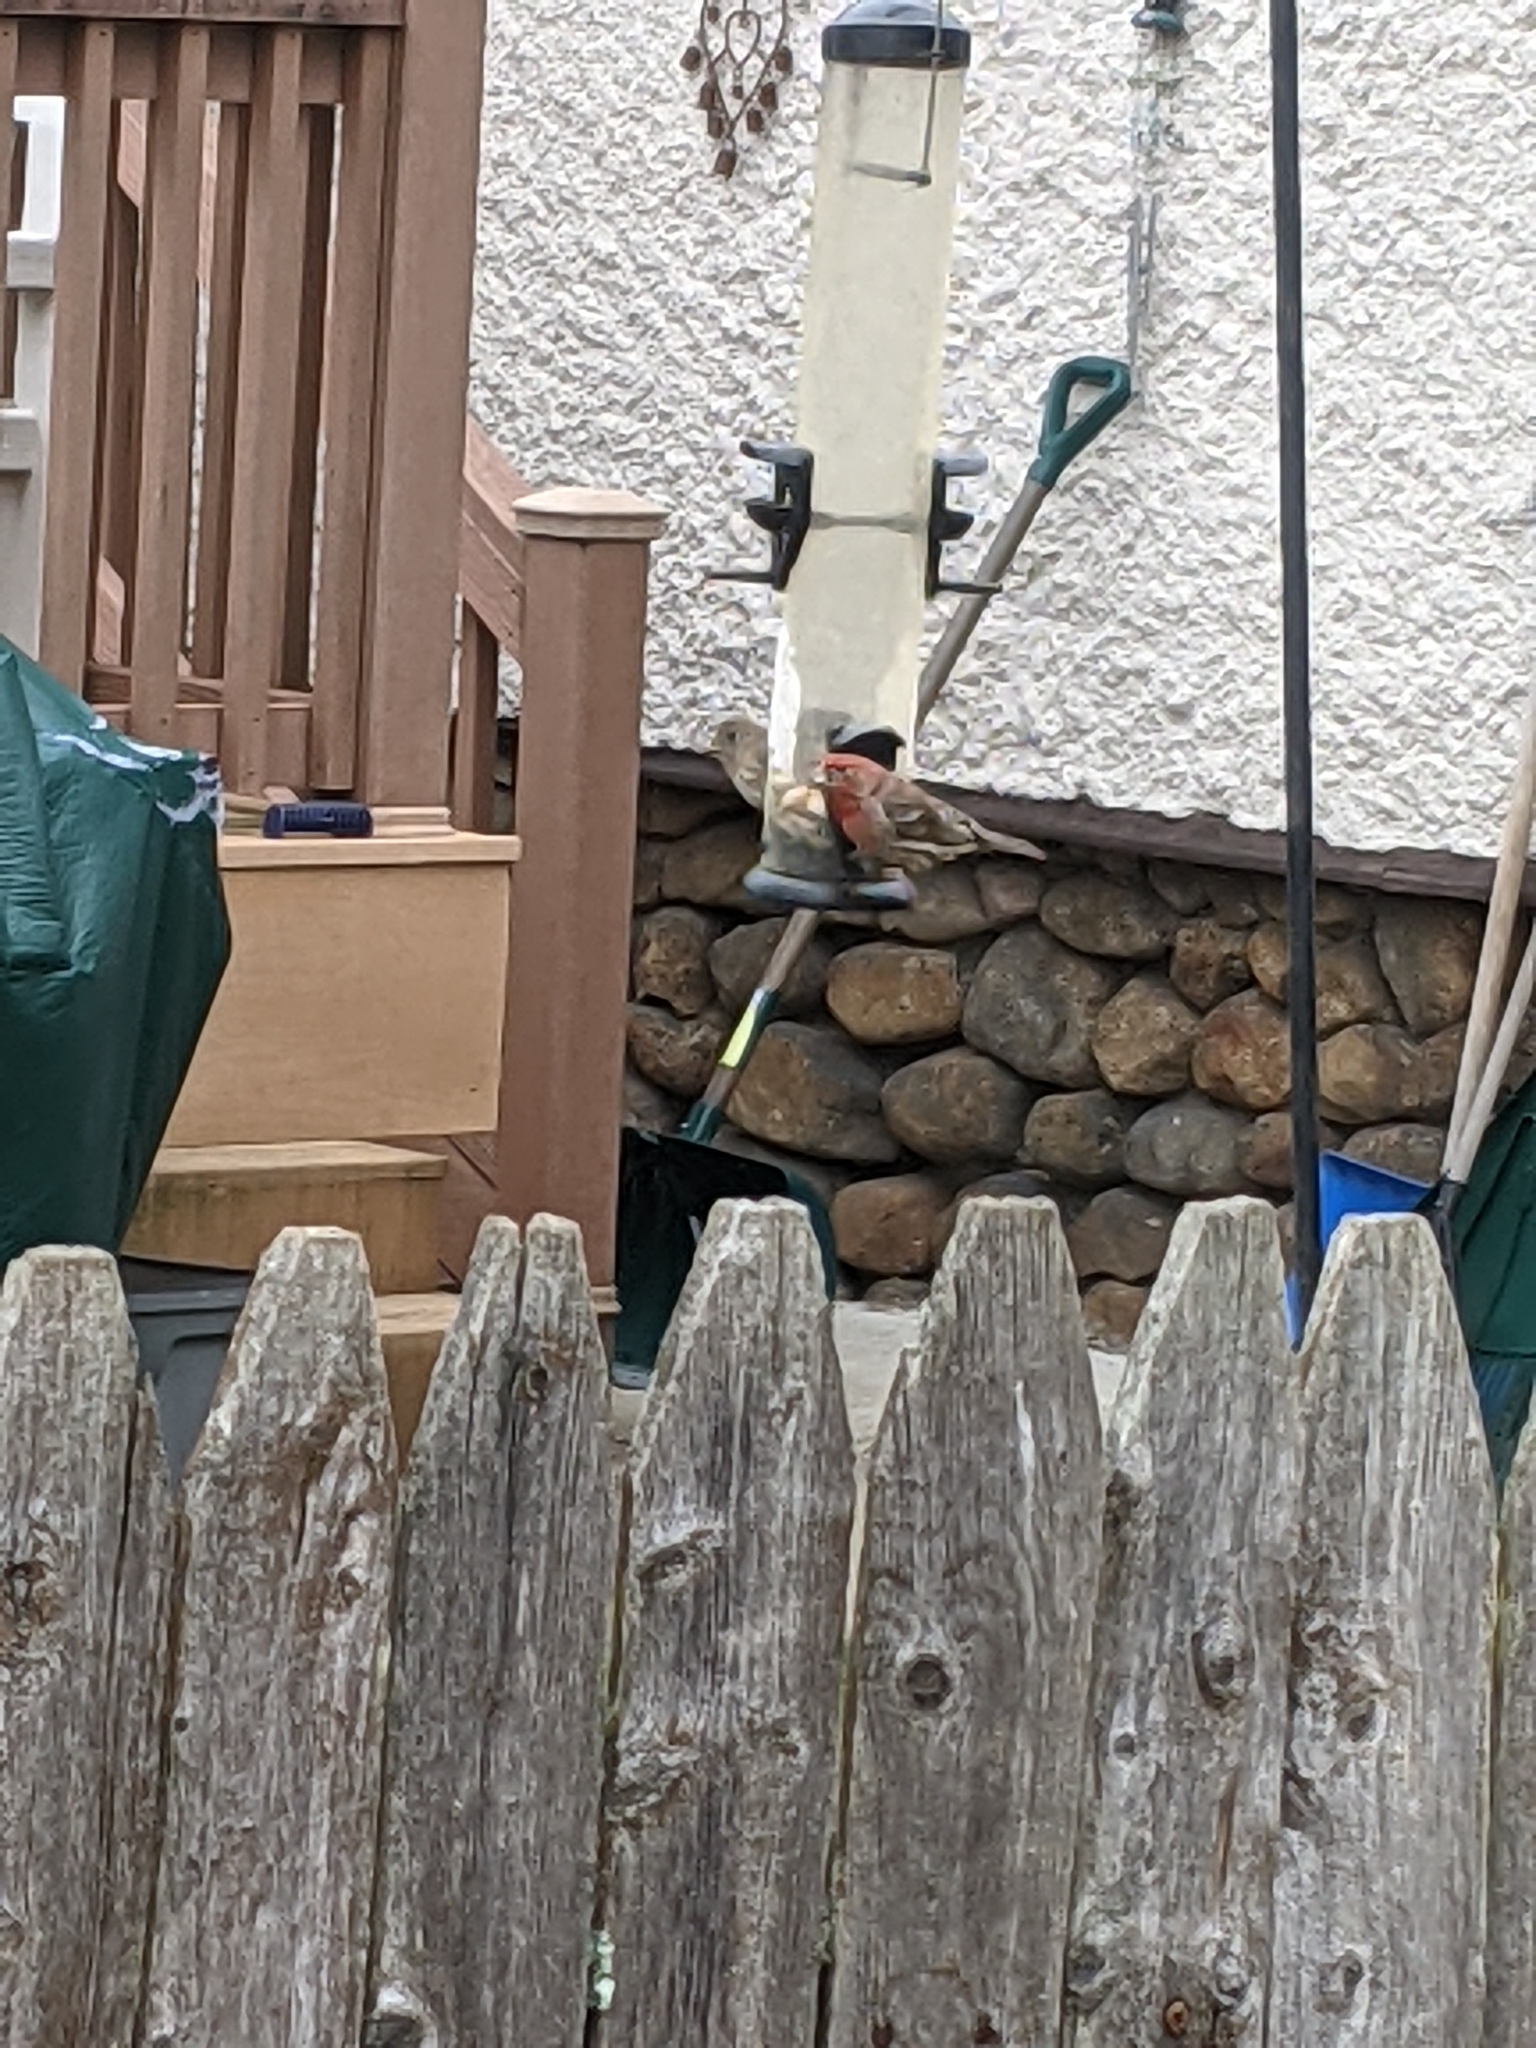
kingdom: Animalia
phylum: Chordata
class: Aves
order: Passeriformes
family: Fringillidae
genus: Haemorhous
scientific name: Haemorhous mexicanus
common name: House finch
